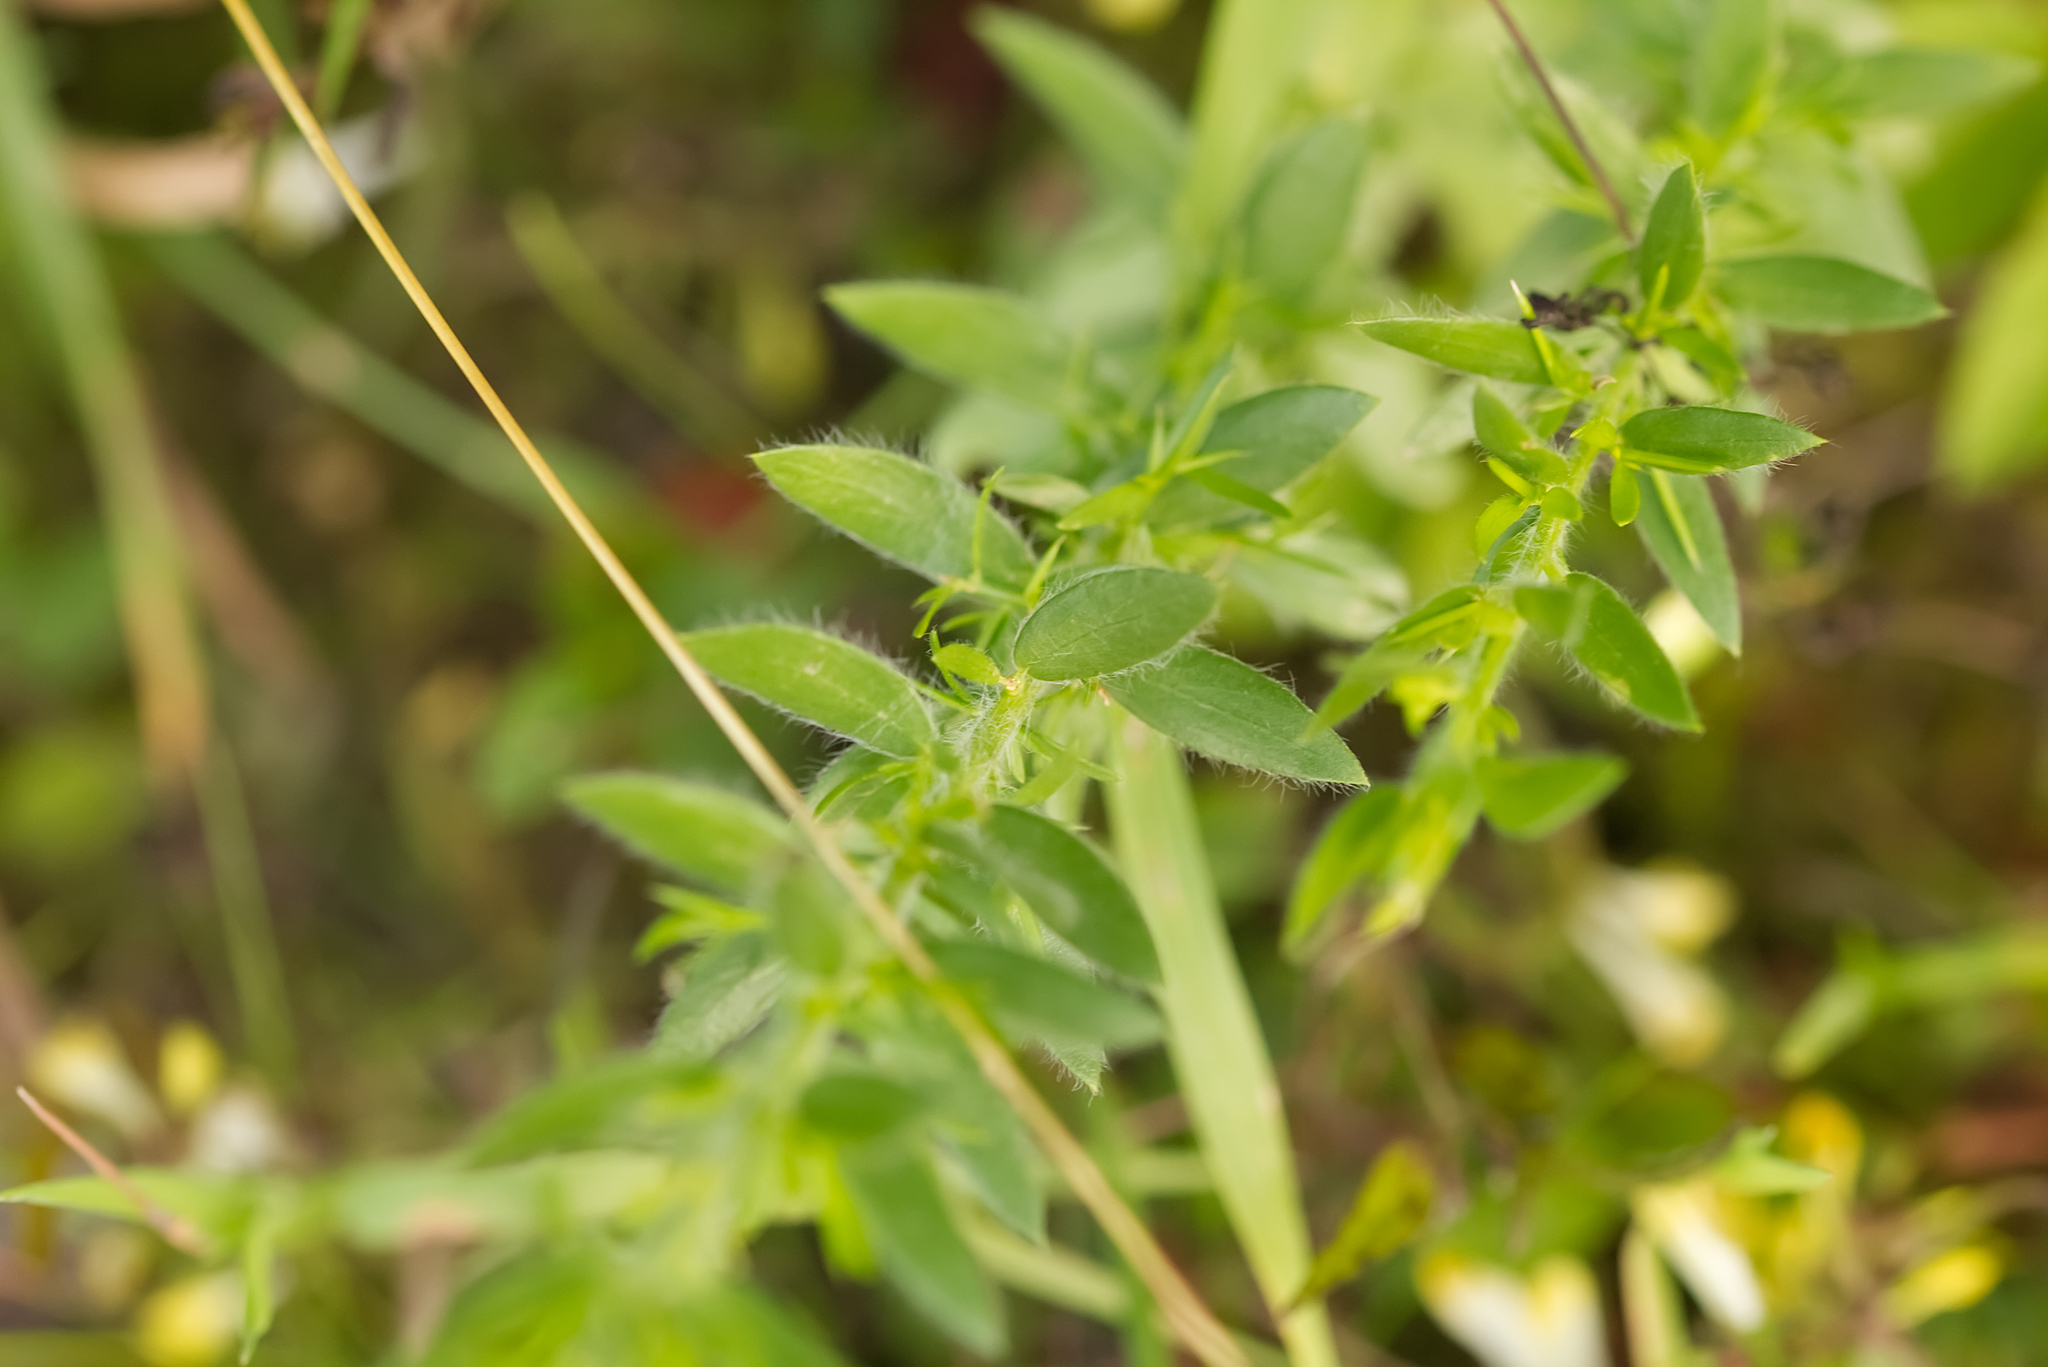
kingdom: Plantae
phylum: Tracheophyta
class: Magnoliopsida
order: Fabales
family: Fabaceae
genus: Genista
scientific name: Genista germanica
